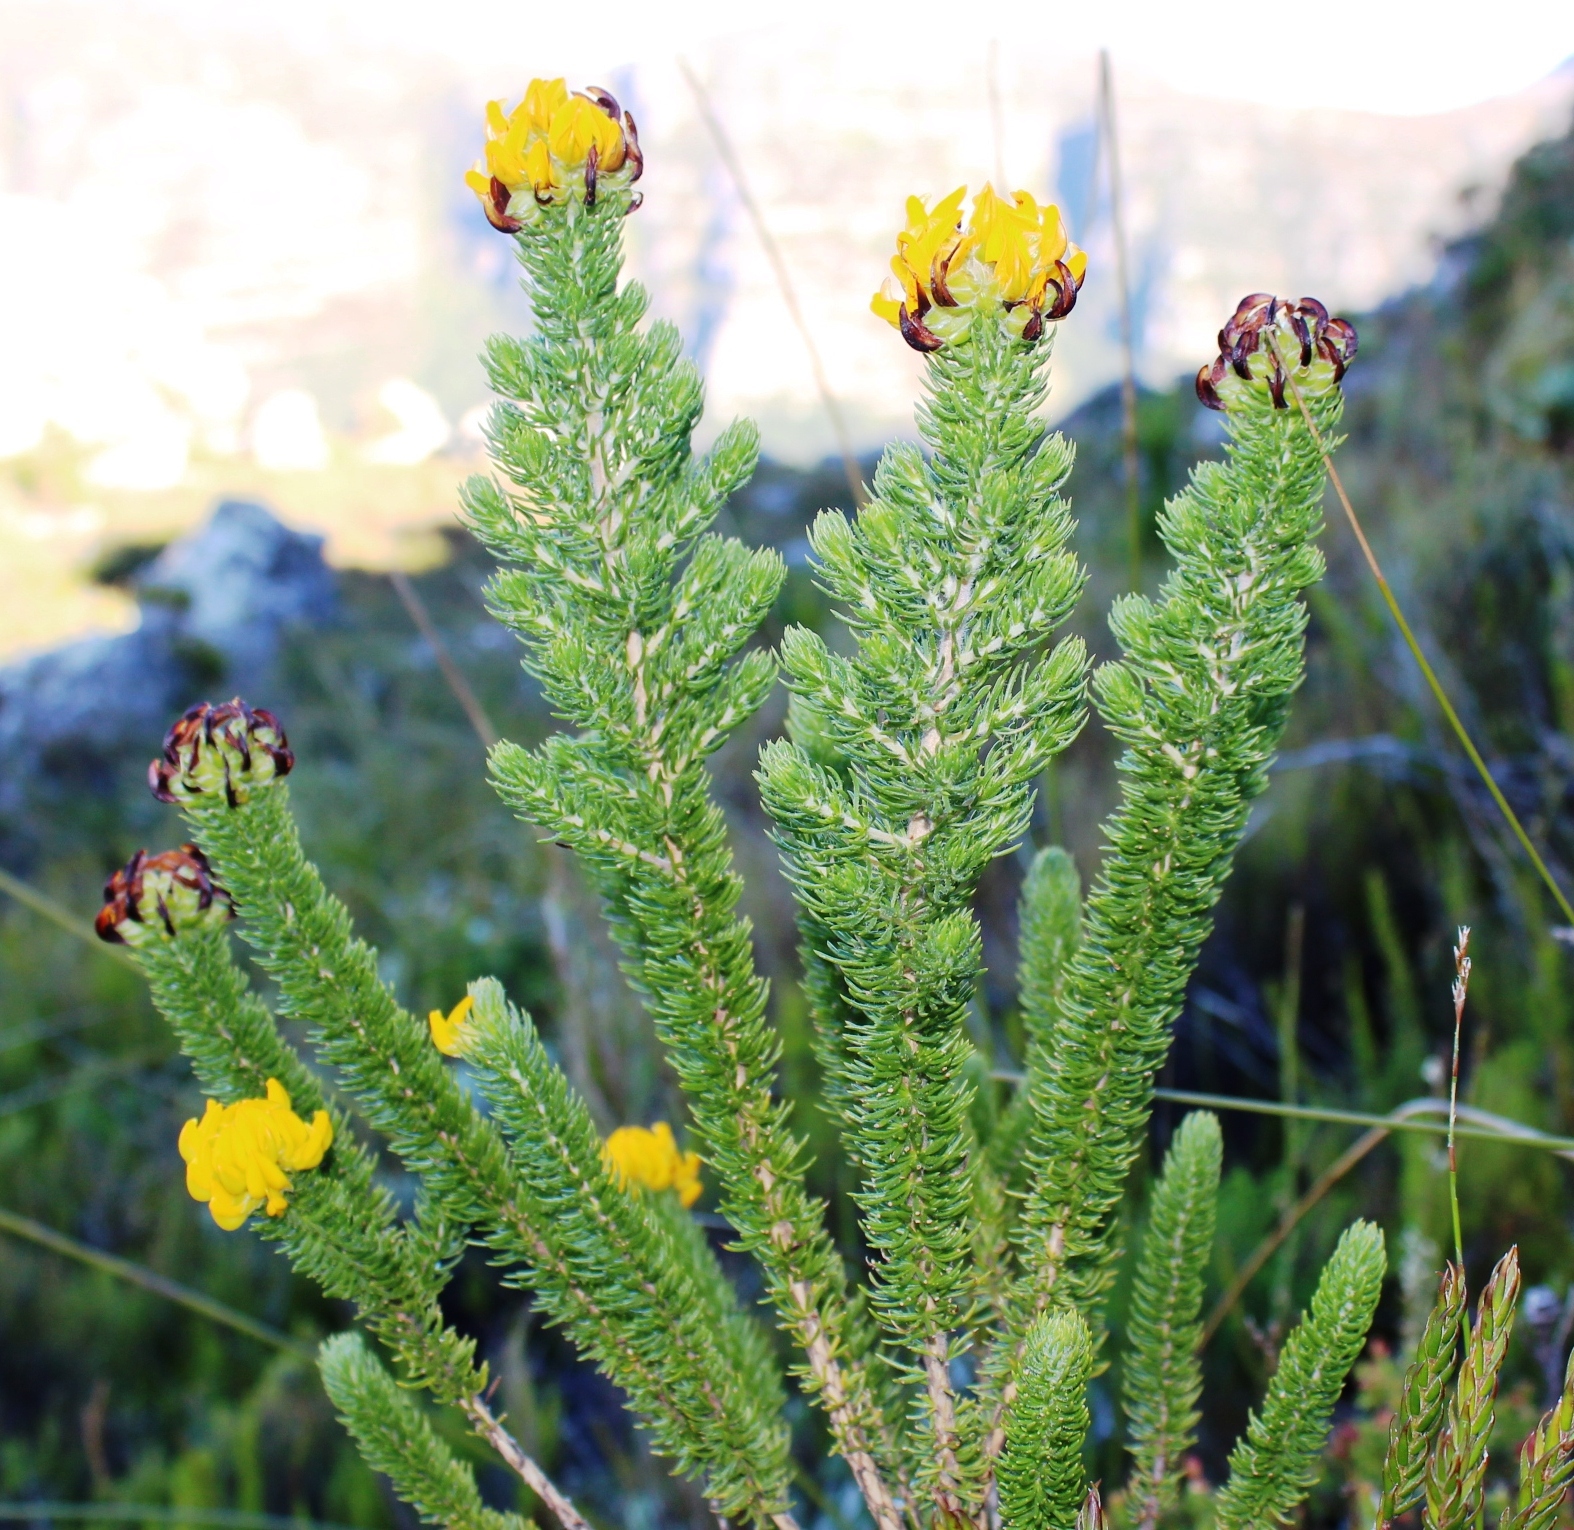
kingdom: Plantae
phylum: Tracheophyta
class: Magnoliopsida
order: Fabales
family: Fabaceae
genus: Aspalathus
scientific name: Aspalathus capitata
